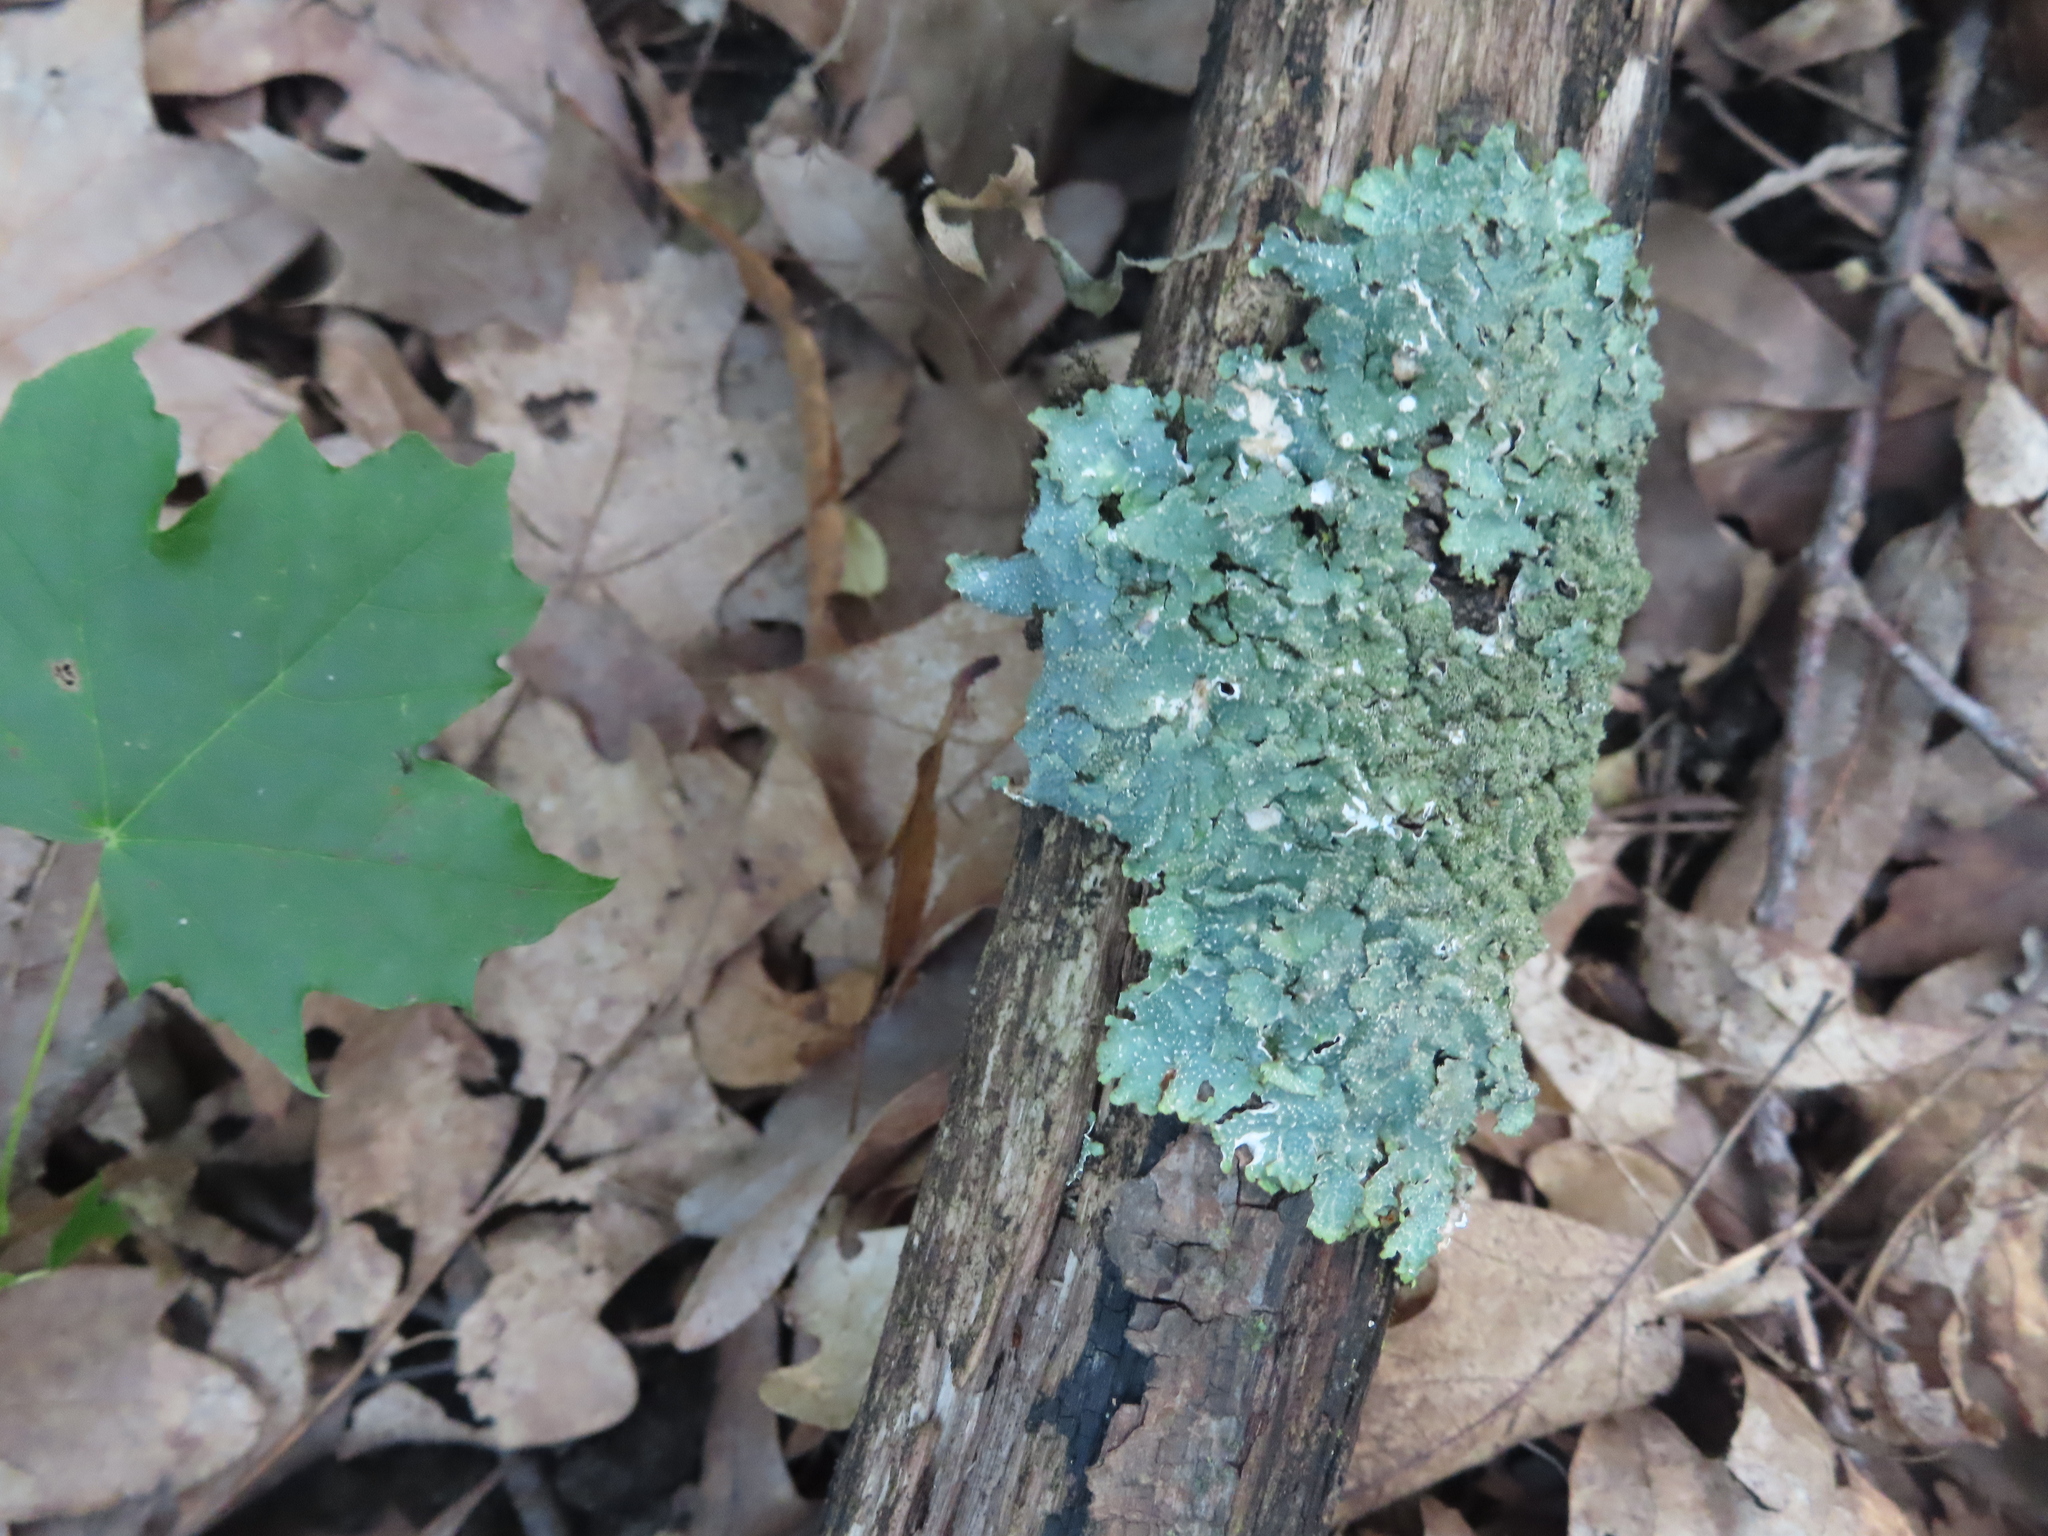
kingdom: Fungi
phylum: Ascomycota
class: Lecanoromycetes
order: Lecanorales
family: Parmeliaceae
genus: Punctelia
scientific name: Punctelia rudecta
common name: Rough speckled shield lichen
